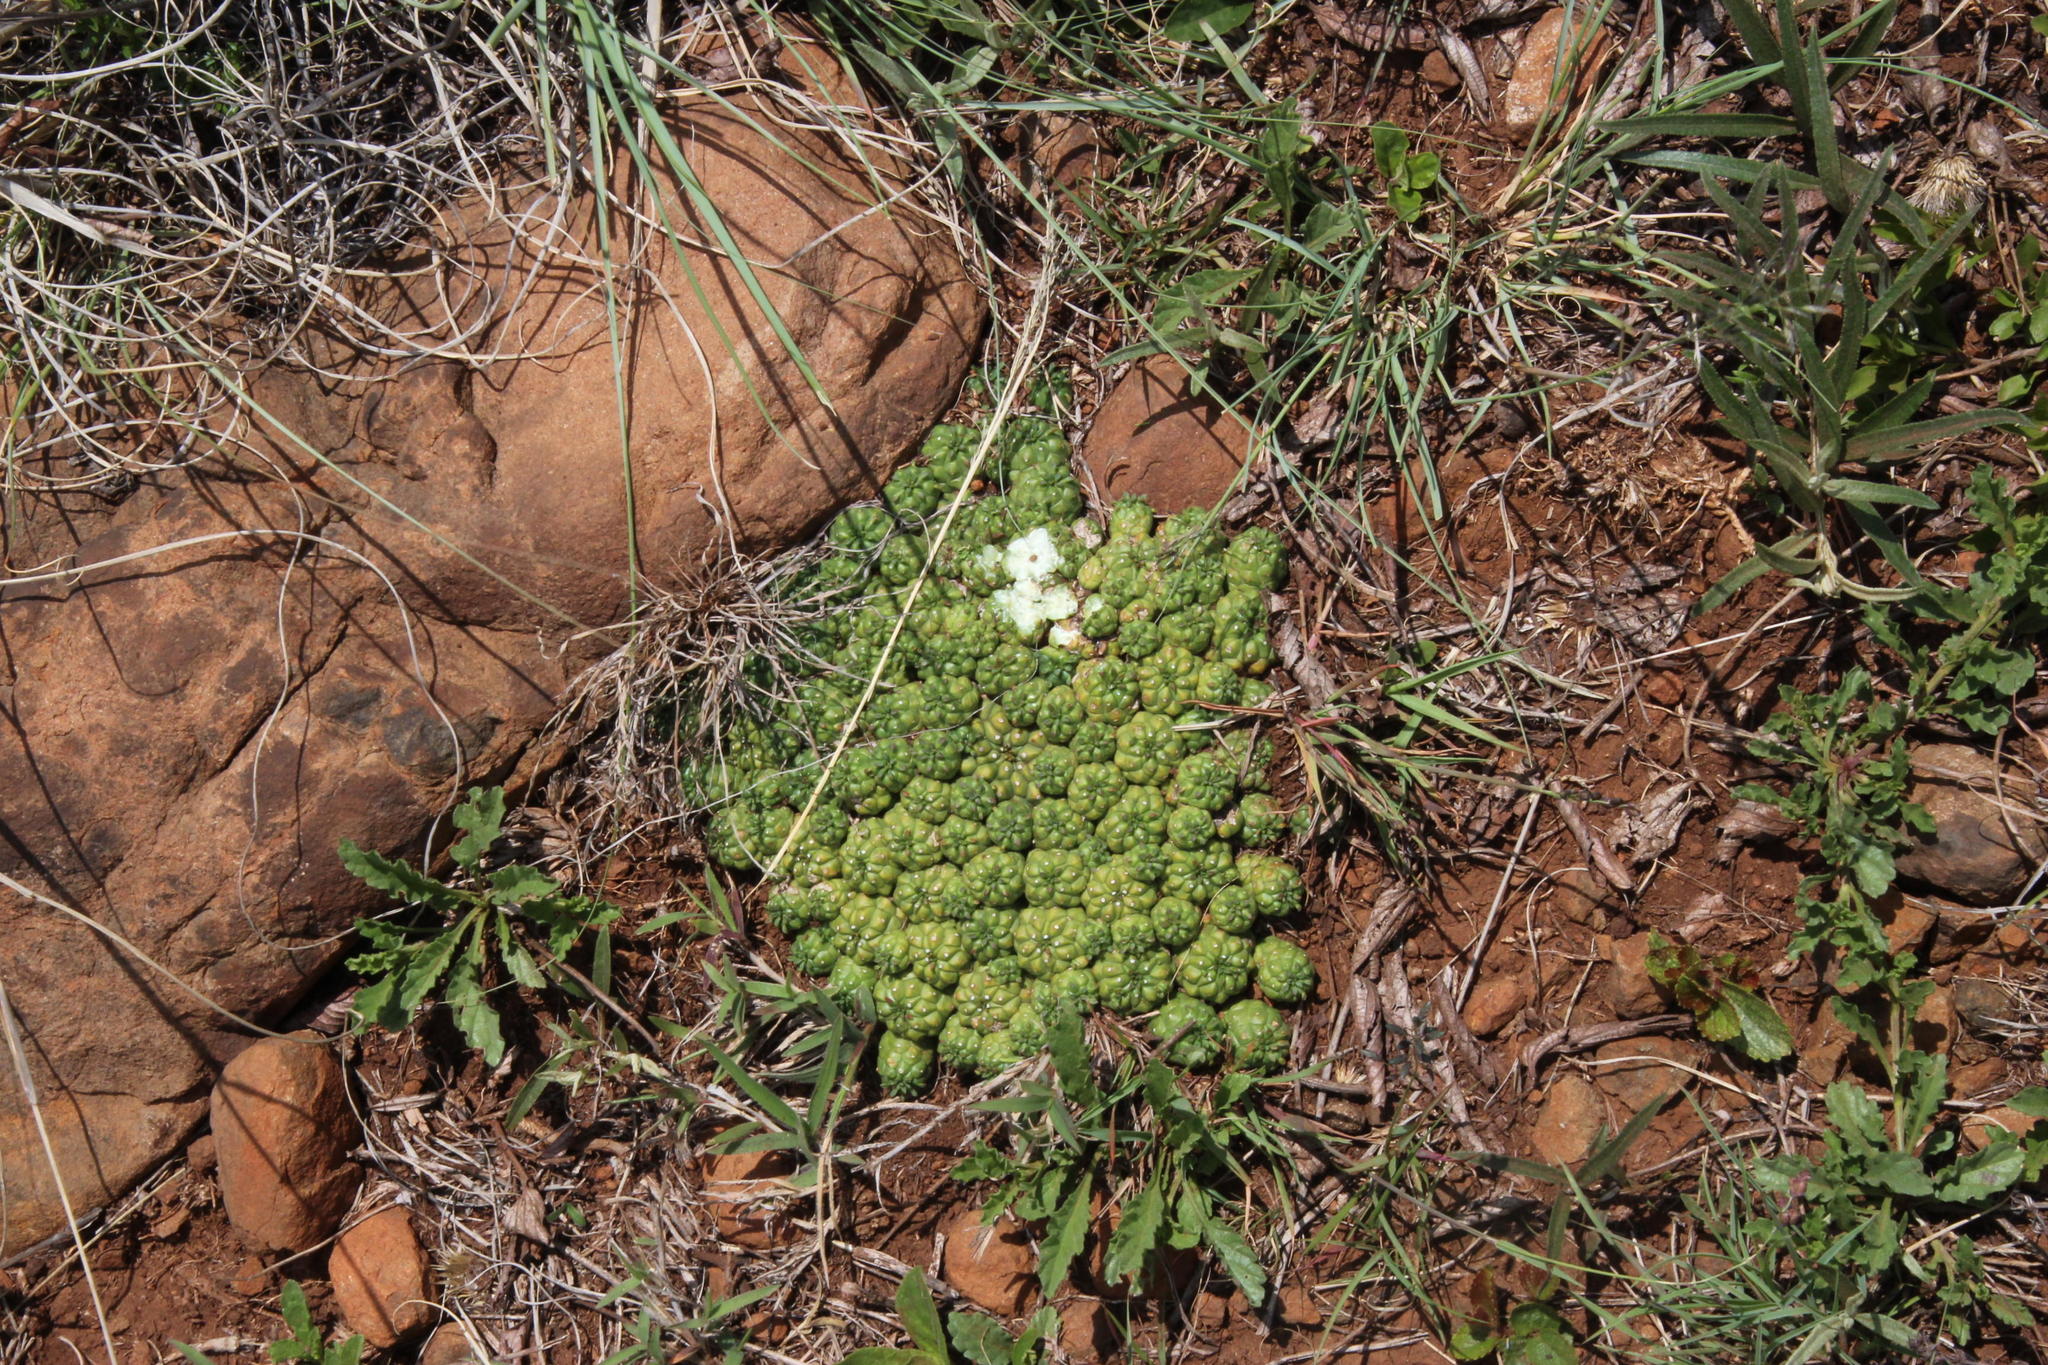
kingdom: Plantae
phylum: Tracheophyta
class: Magnoliopsida
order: Malpighiales
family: Euphorbiaceae
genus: Euphorbia
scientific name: Euphorbia clavarioides
